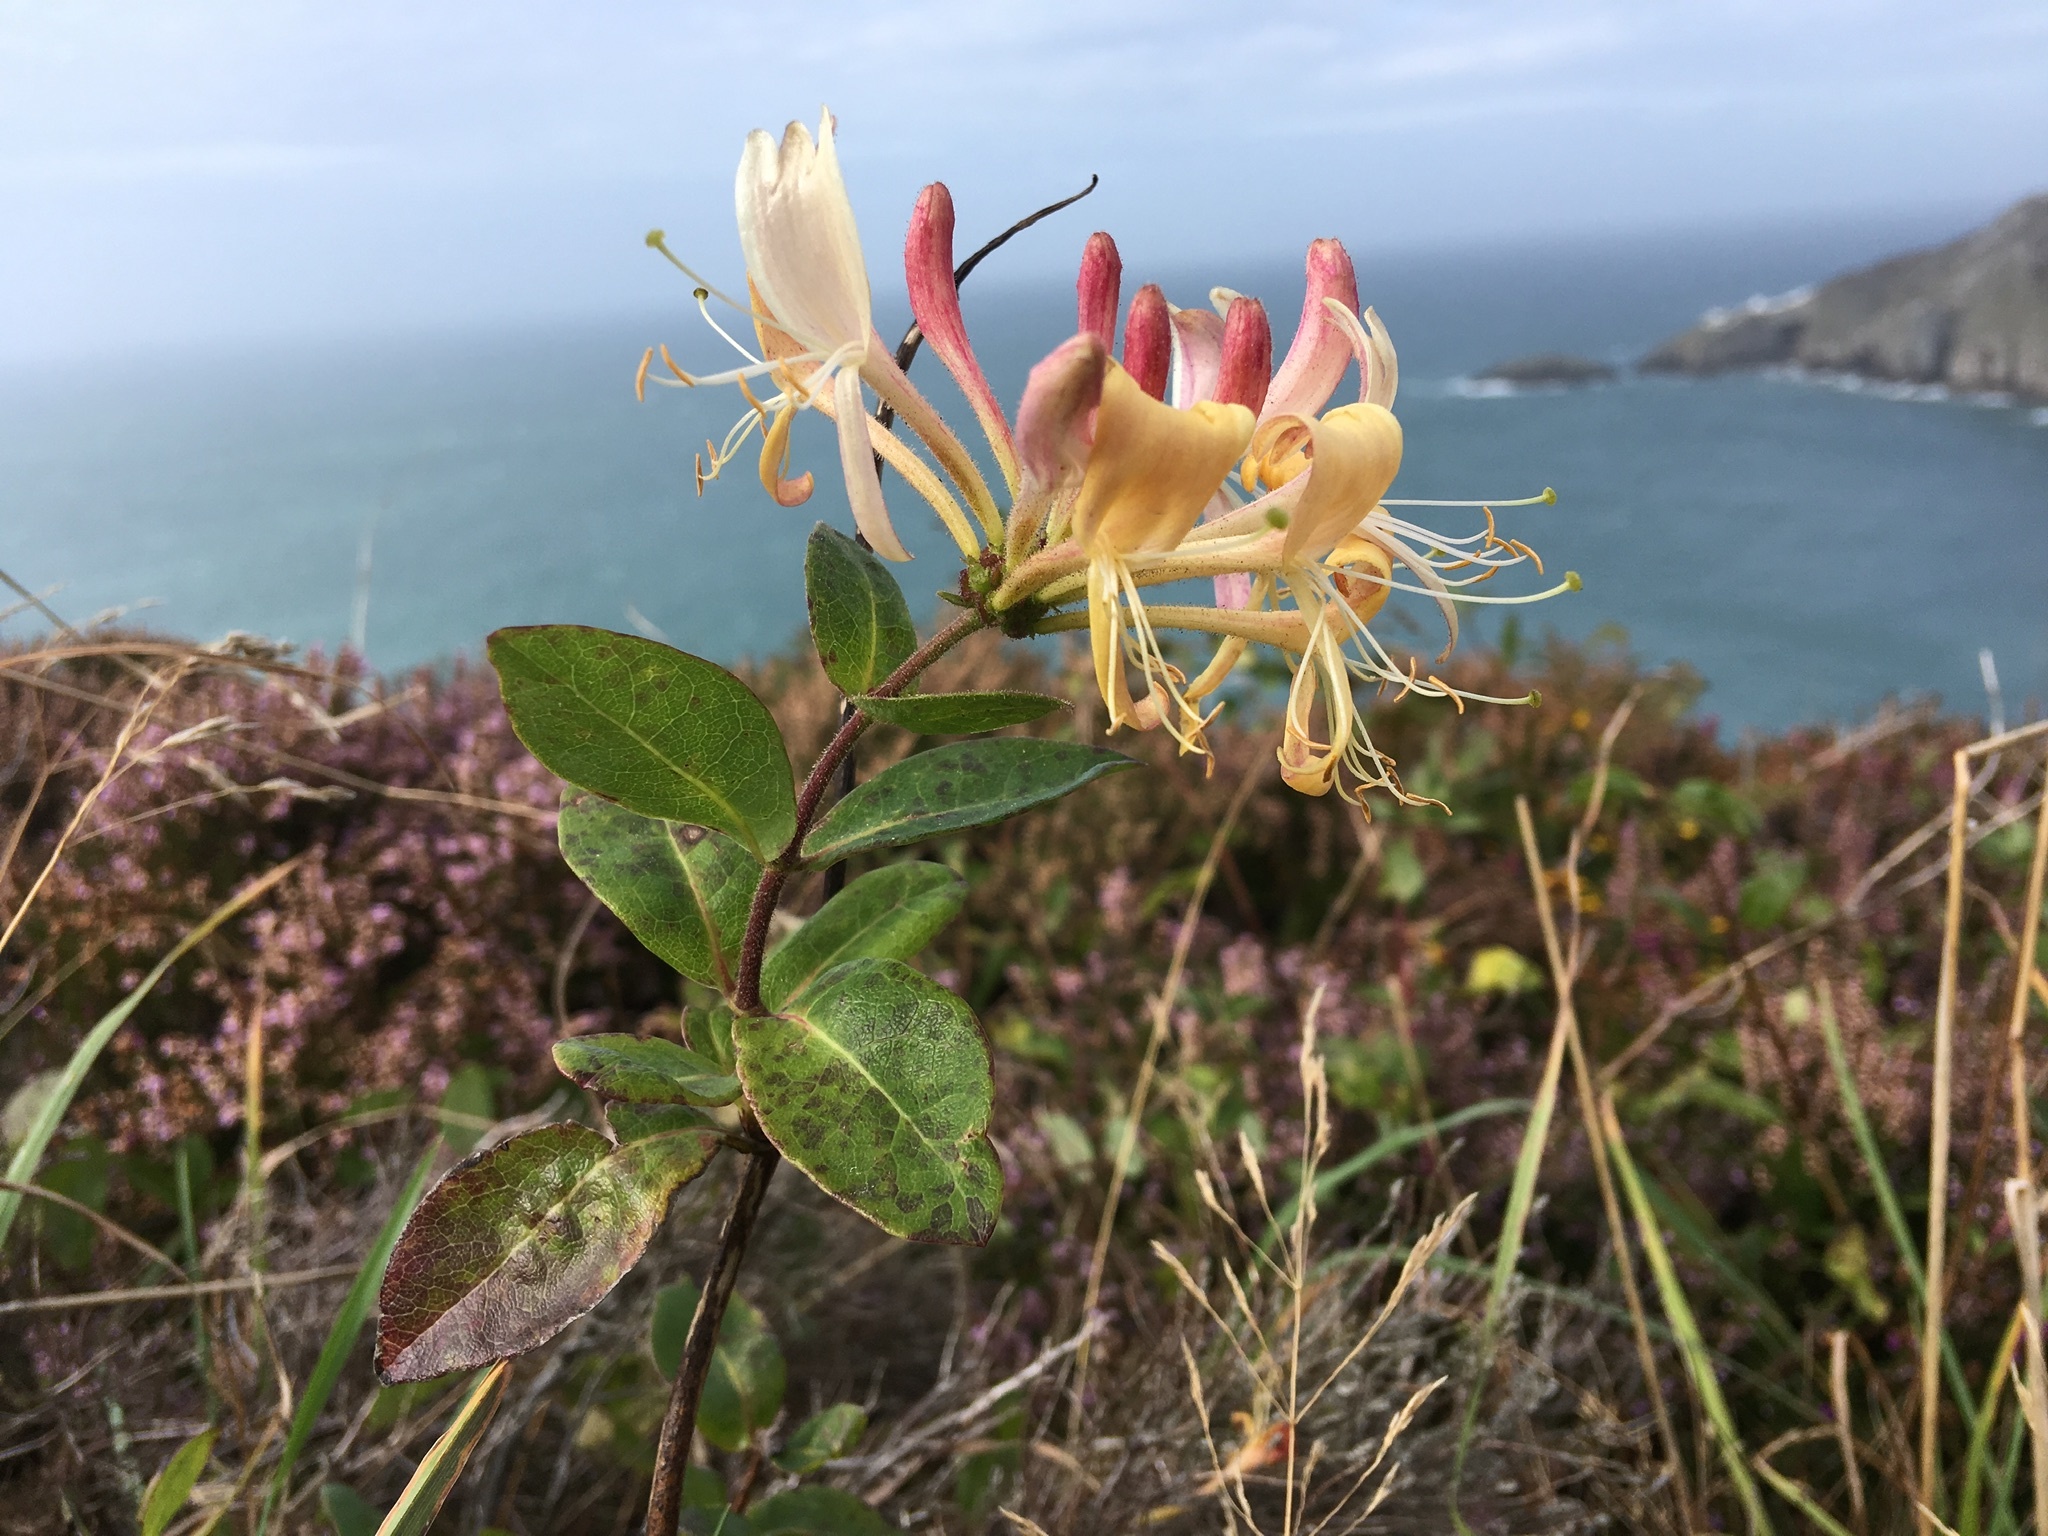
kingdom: Plantae
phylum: Tracheophyta
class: Magnoliopsida
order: Dipsacales
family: Caprifoliaceae
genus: Lonicera
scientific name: Lonicera periclymenum
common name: European honeysuckle
